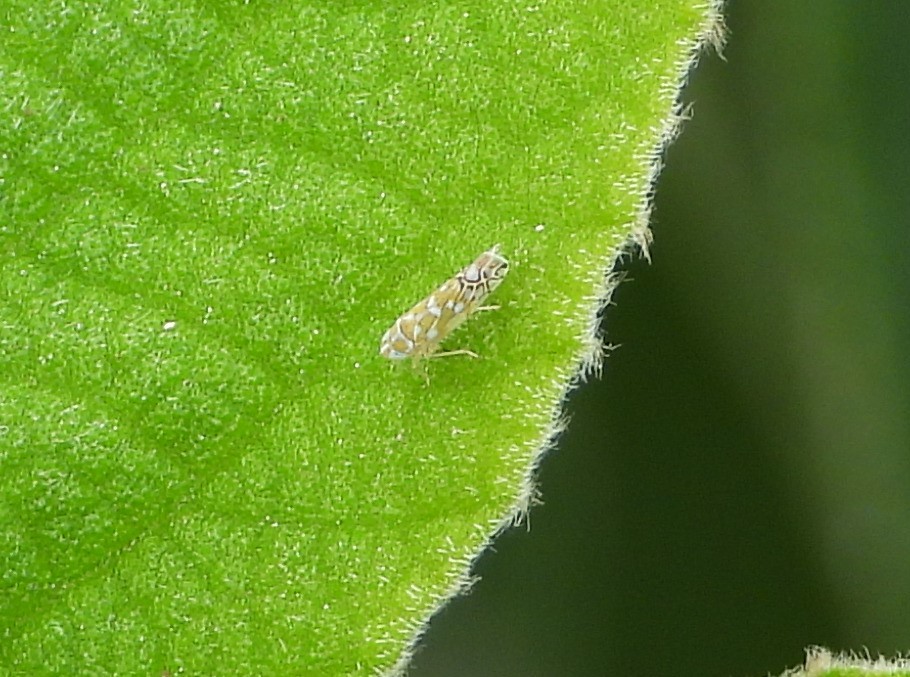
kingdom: Animalia
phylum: Arthropoda
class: Insecta
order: Hemiptera
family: Cicadellidae
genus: Diceratalebra
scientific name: Diceratalebra interrogata
